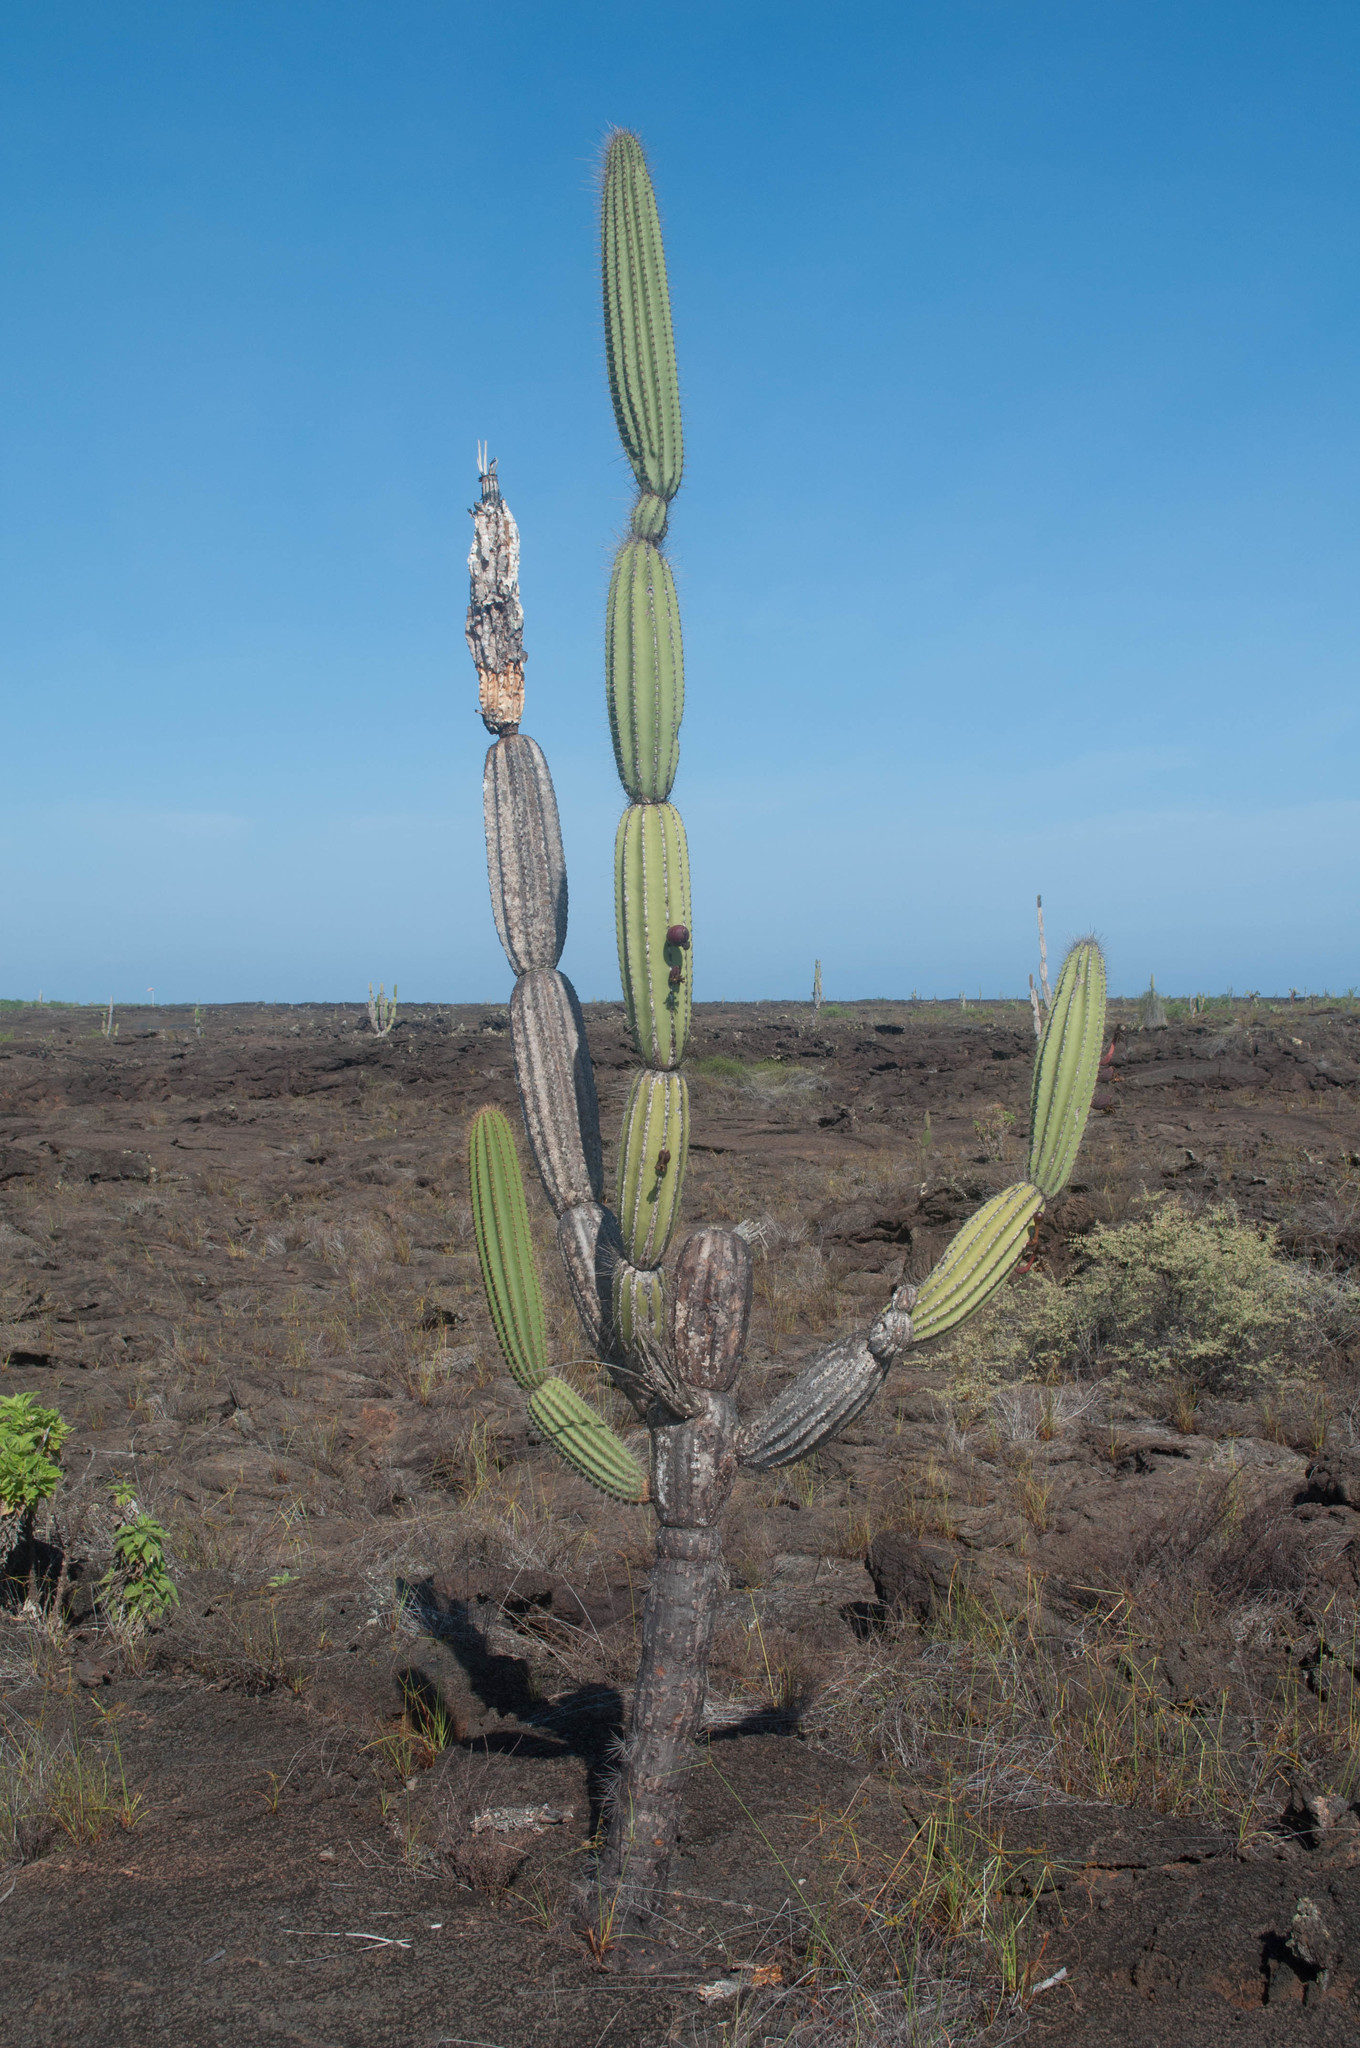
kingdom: Plantae
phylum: Tracheophyta
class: Magnoliopsida
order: Caryophyllales
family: Cactaceae
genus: Jasminocereus
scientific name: Jasminocereus thouarsii
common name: Candelabra cactus
